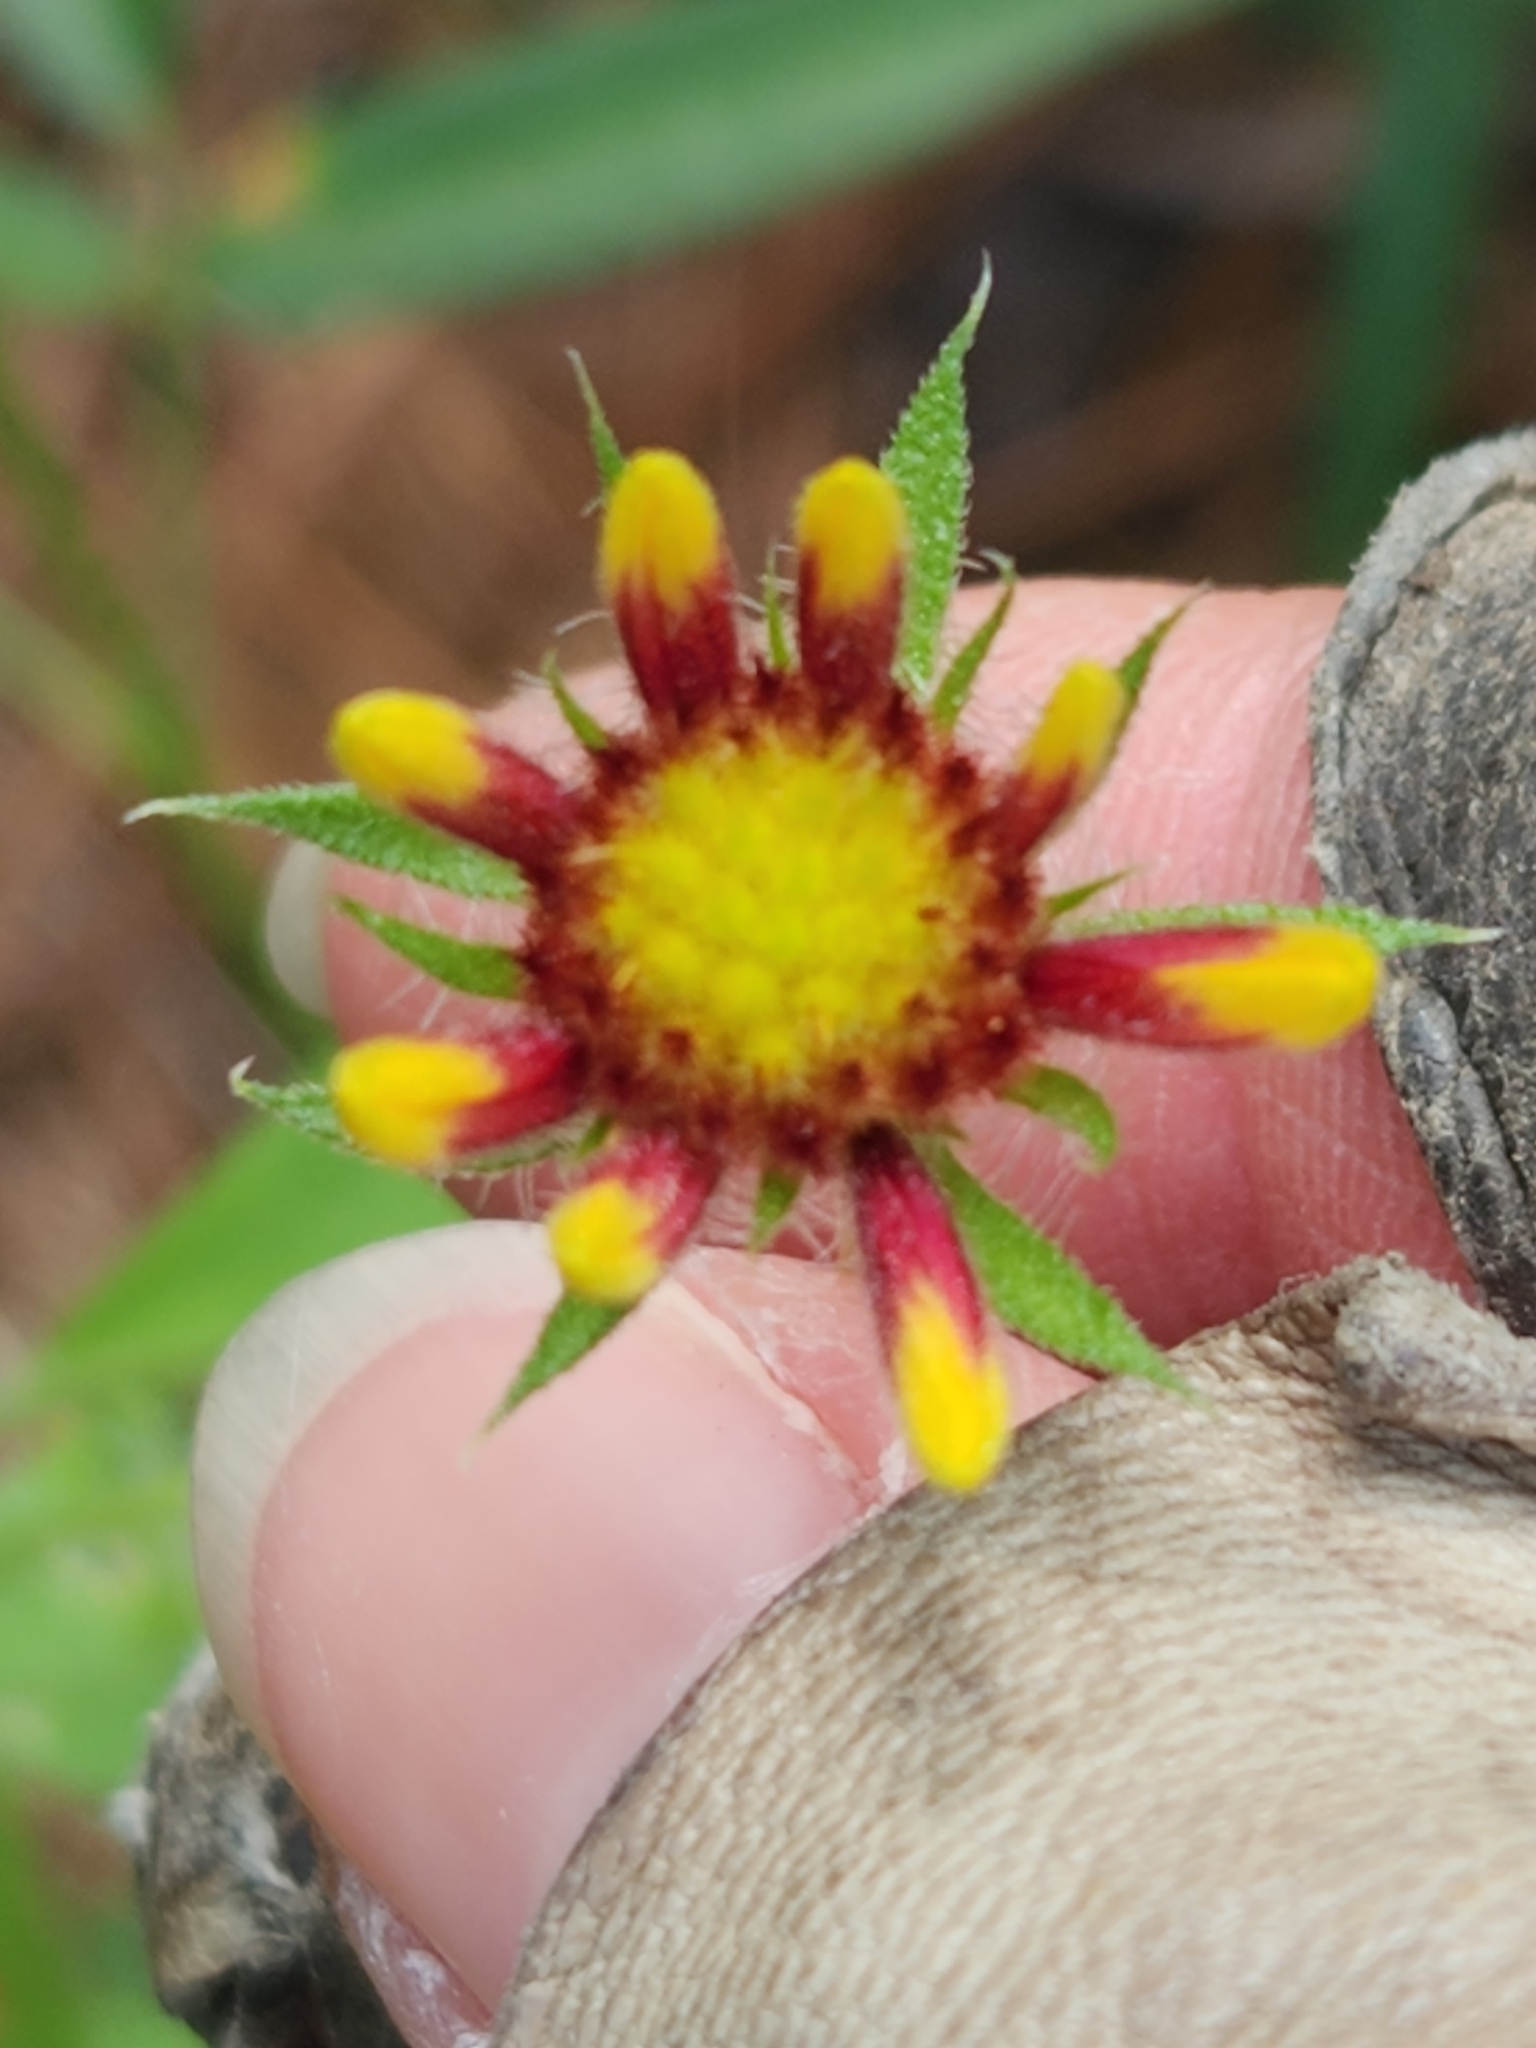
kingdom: Plantae
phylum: Tracheophyta
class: Magnoliopsida
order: Asterales
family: Asteraceae
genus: Gaillardia
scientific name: Gaillardia pulchella
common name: Firewheel
